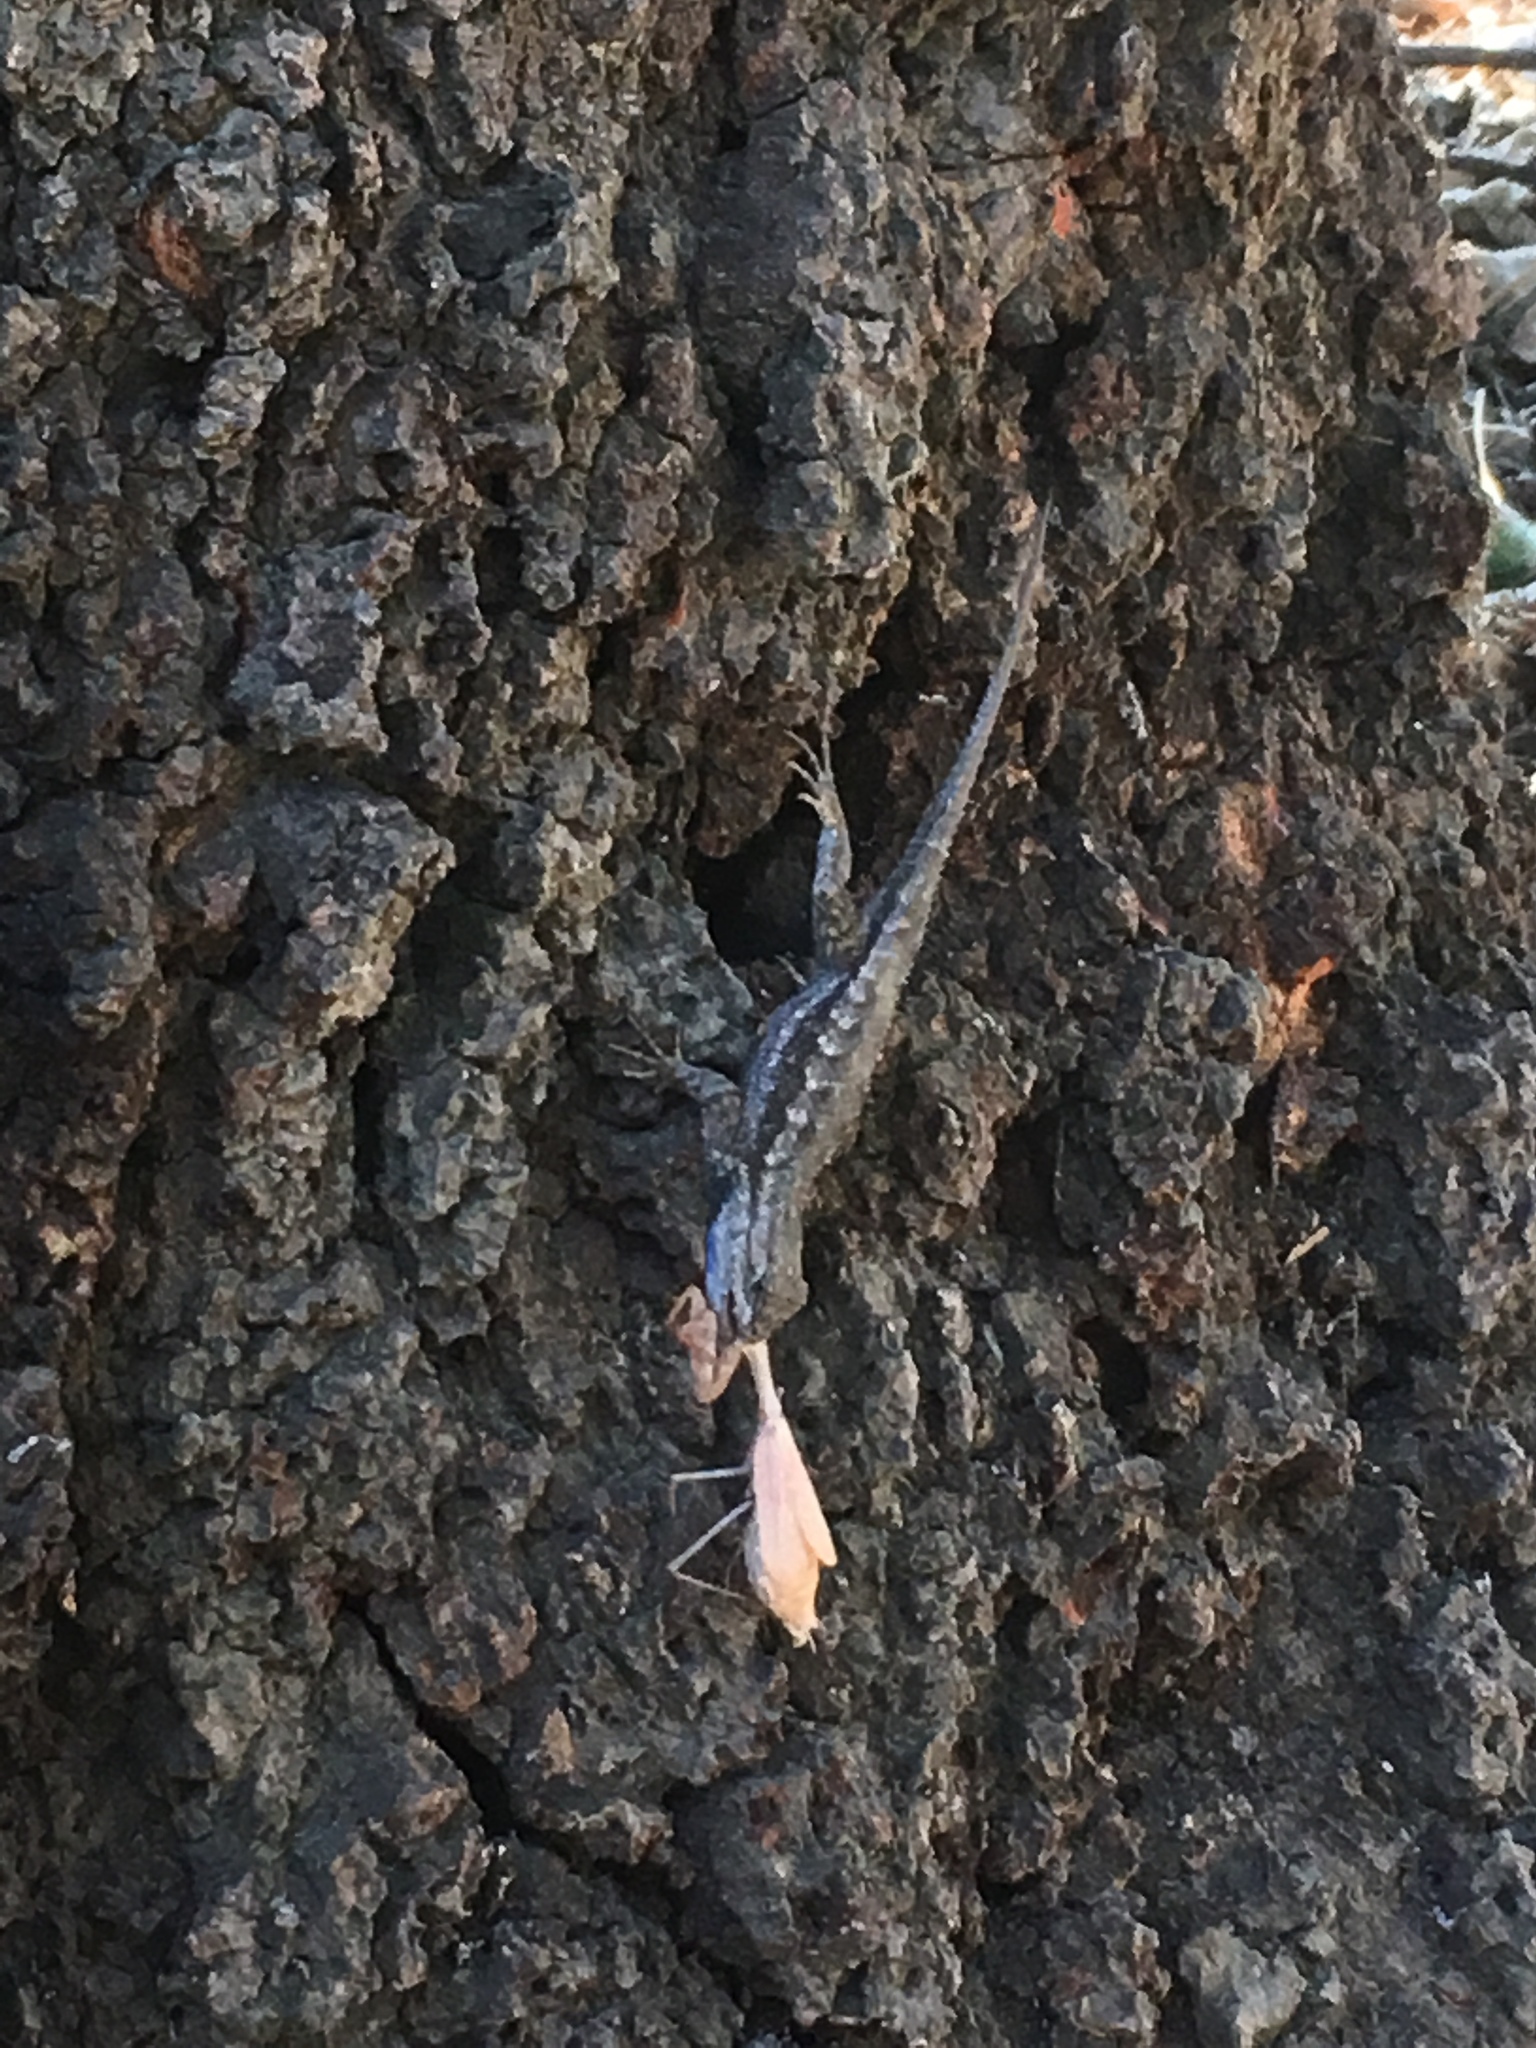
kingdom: Animalia
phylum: Chordata
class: Squamata
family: Phrynosomatidae
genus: Sceloporus
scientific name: Sceloporus occidentalis
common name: Western fence lizard
